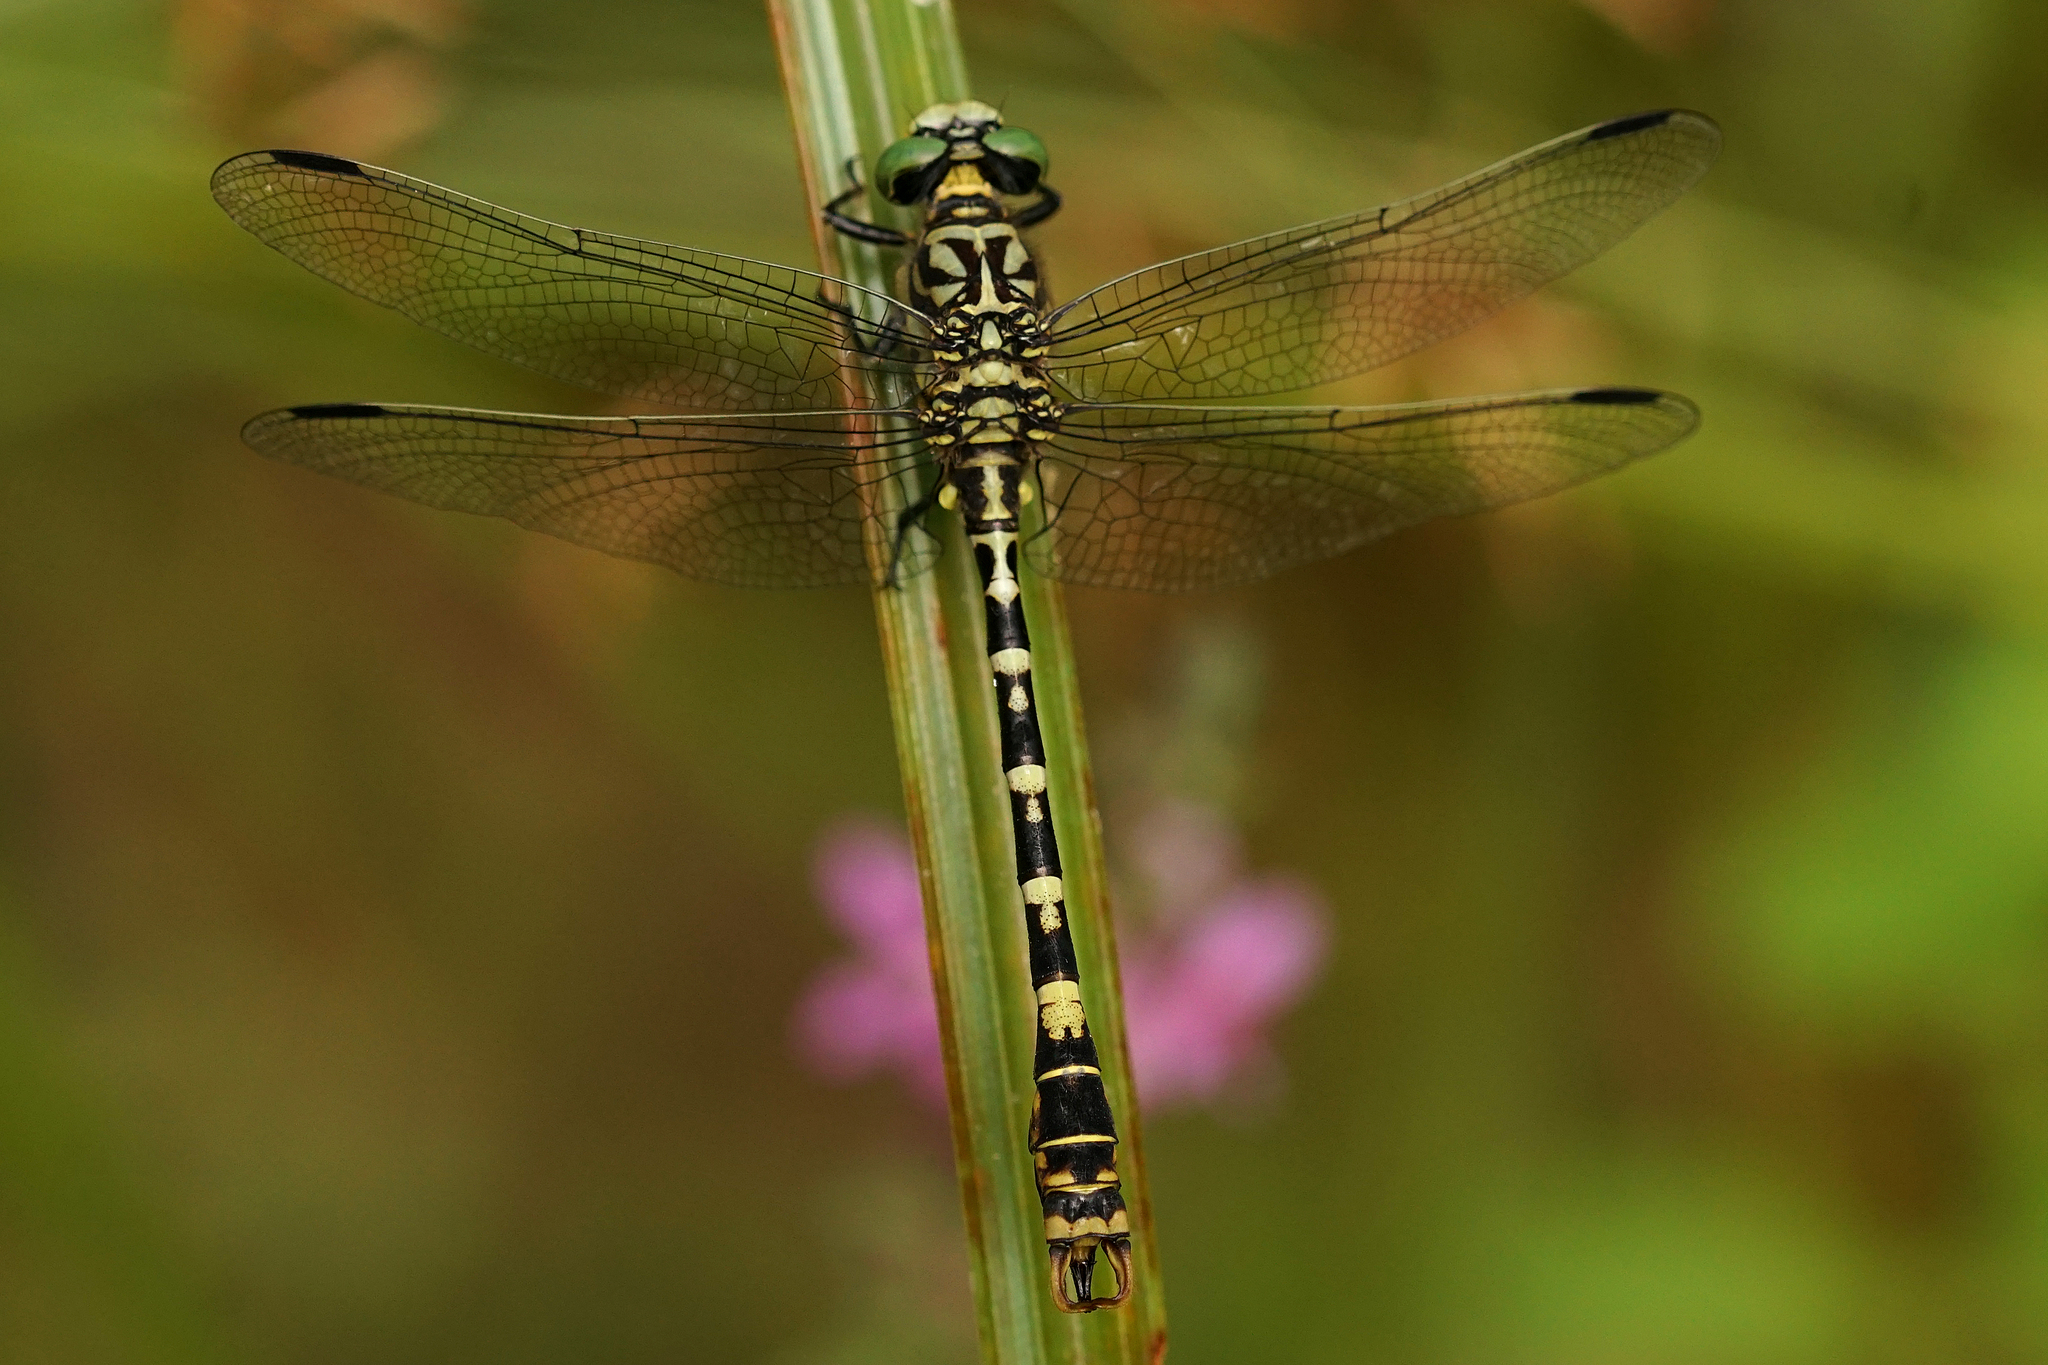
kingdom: Animalia
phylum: Arthropoda
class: Insecta
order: Odonata
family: Gomphidae
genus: Onychogomphus
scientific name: Onychogomphus forcipatus
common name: Small pincertail
